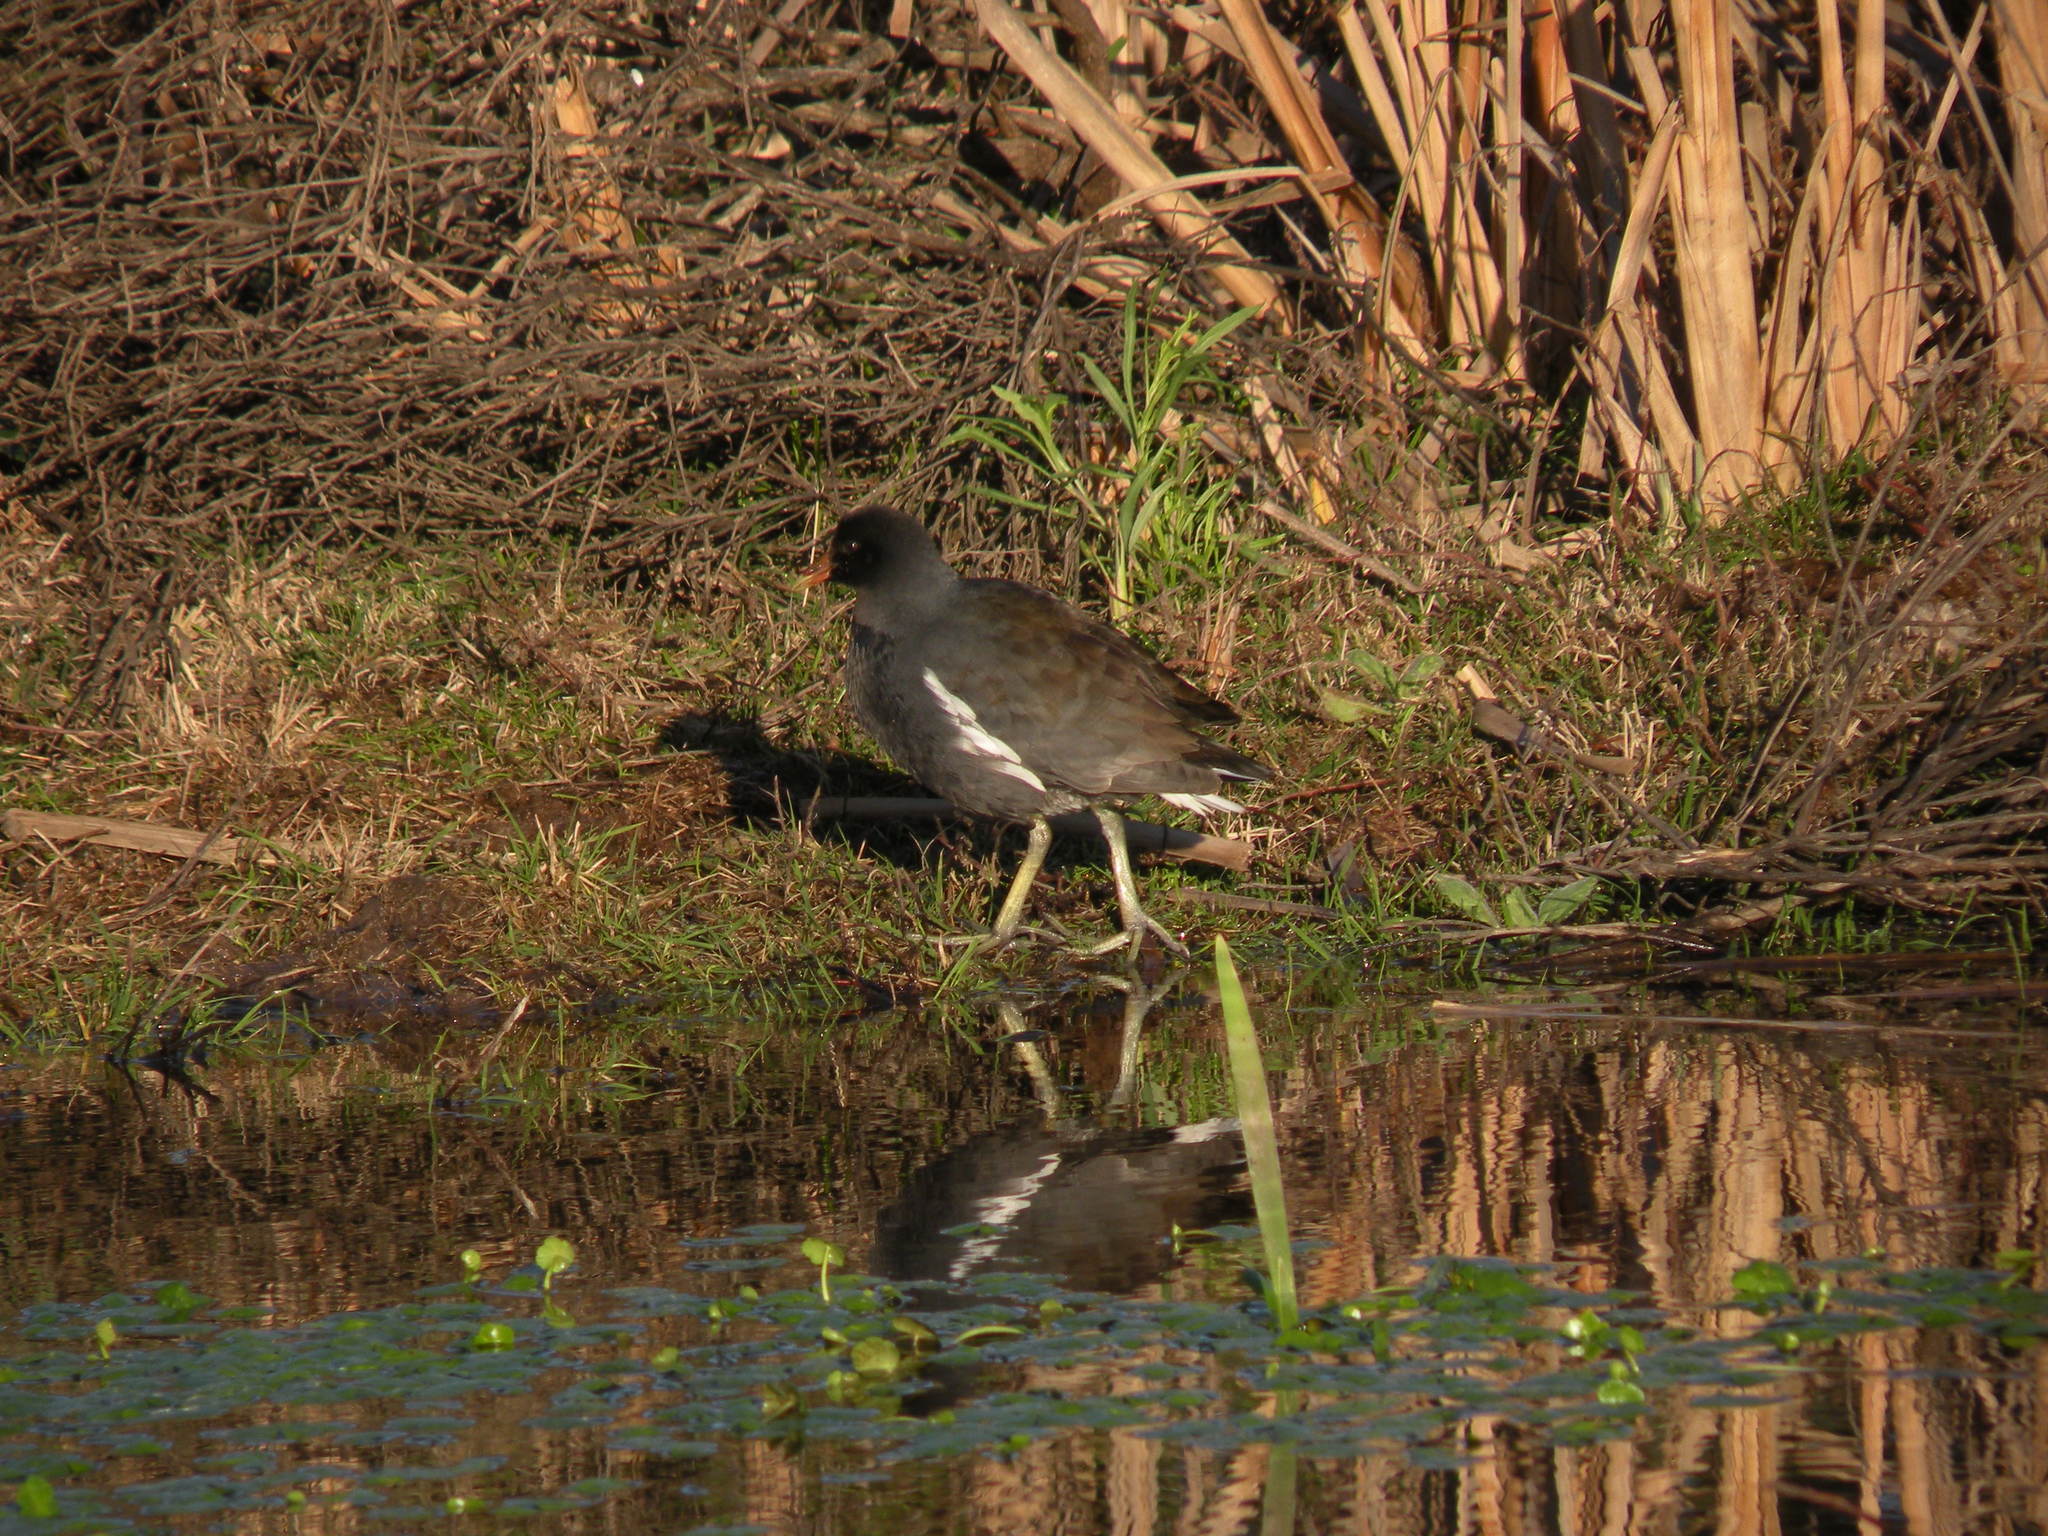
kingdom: Animalia
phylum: Chordata
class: Aves
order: Gruiformes
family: Rallidae
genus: Gallinula
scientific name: Gallinula chloropus
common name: Common moorhen
